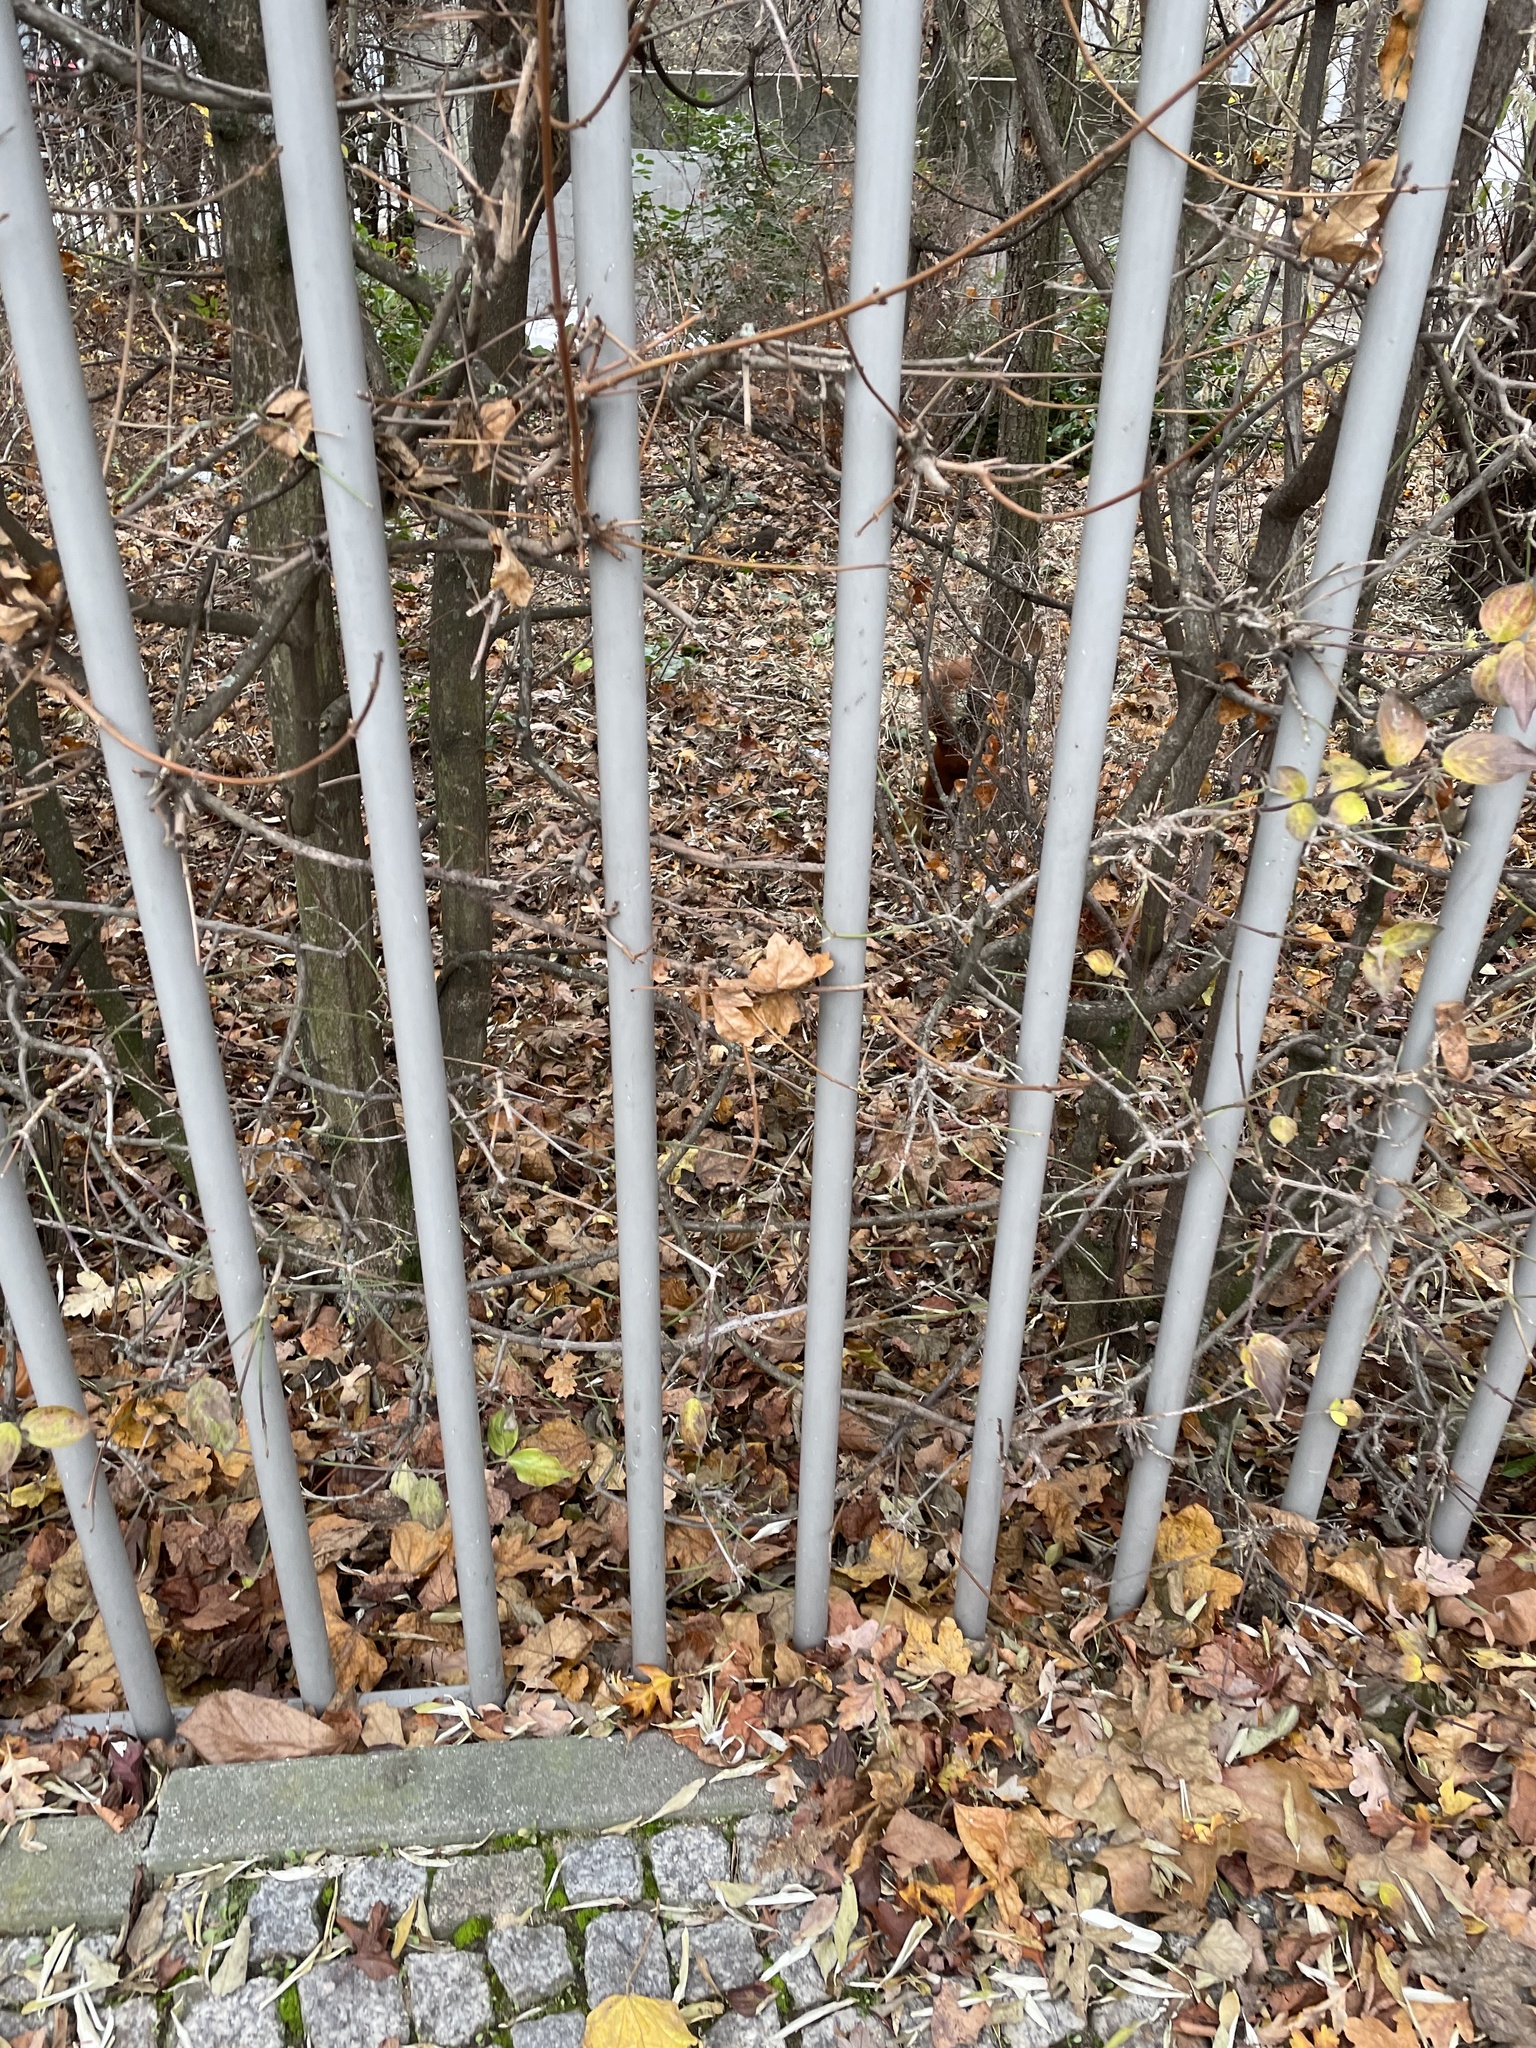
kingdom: Animalia
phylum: Chordata
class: Mammalia
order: Rodentia
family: Sciuridae
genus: Sciurus
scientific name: Sciurus vulgaris
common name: Eurasian red squirrel
